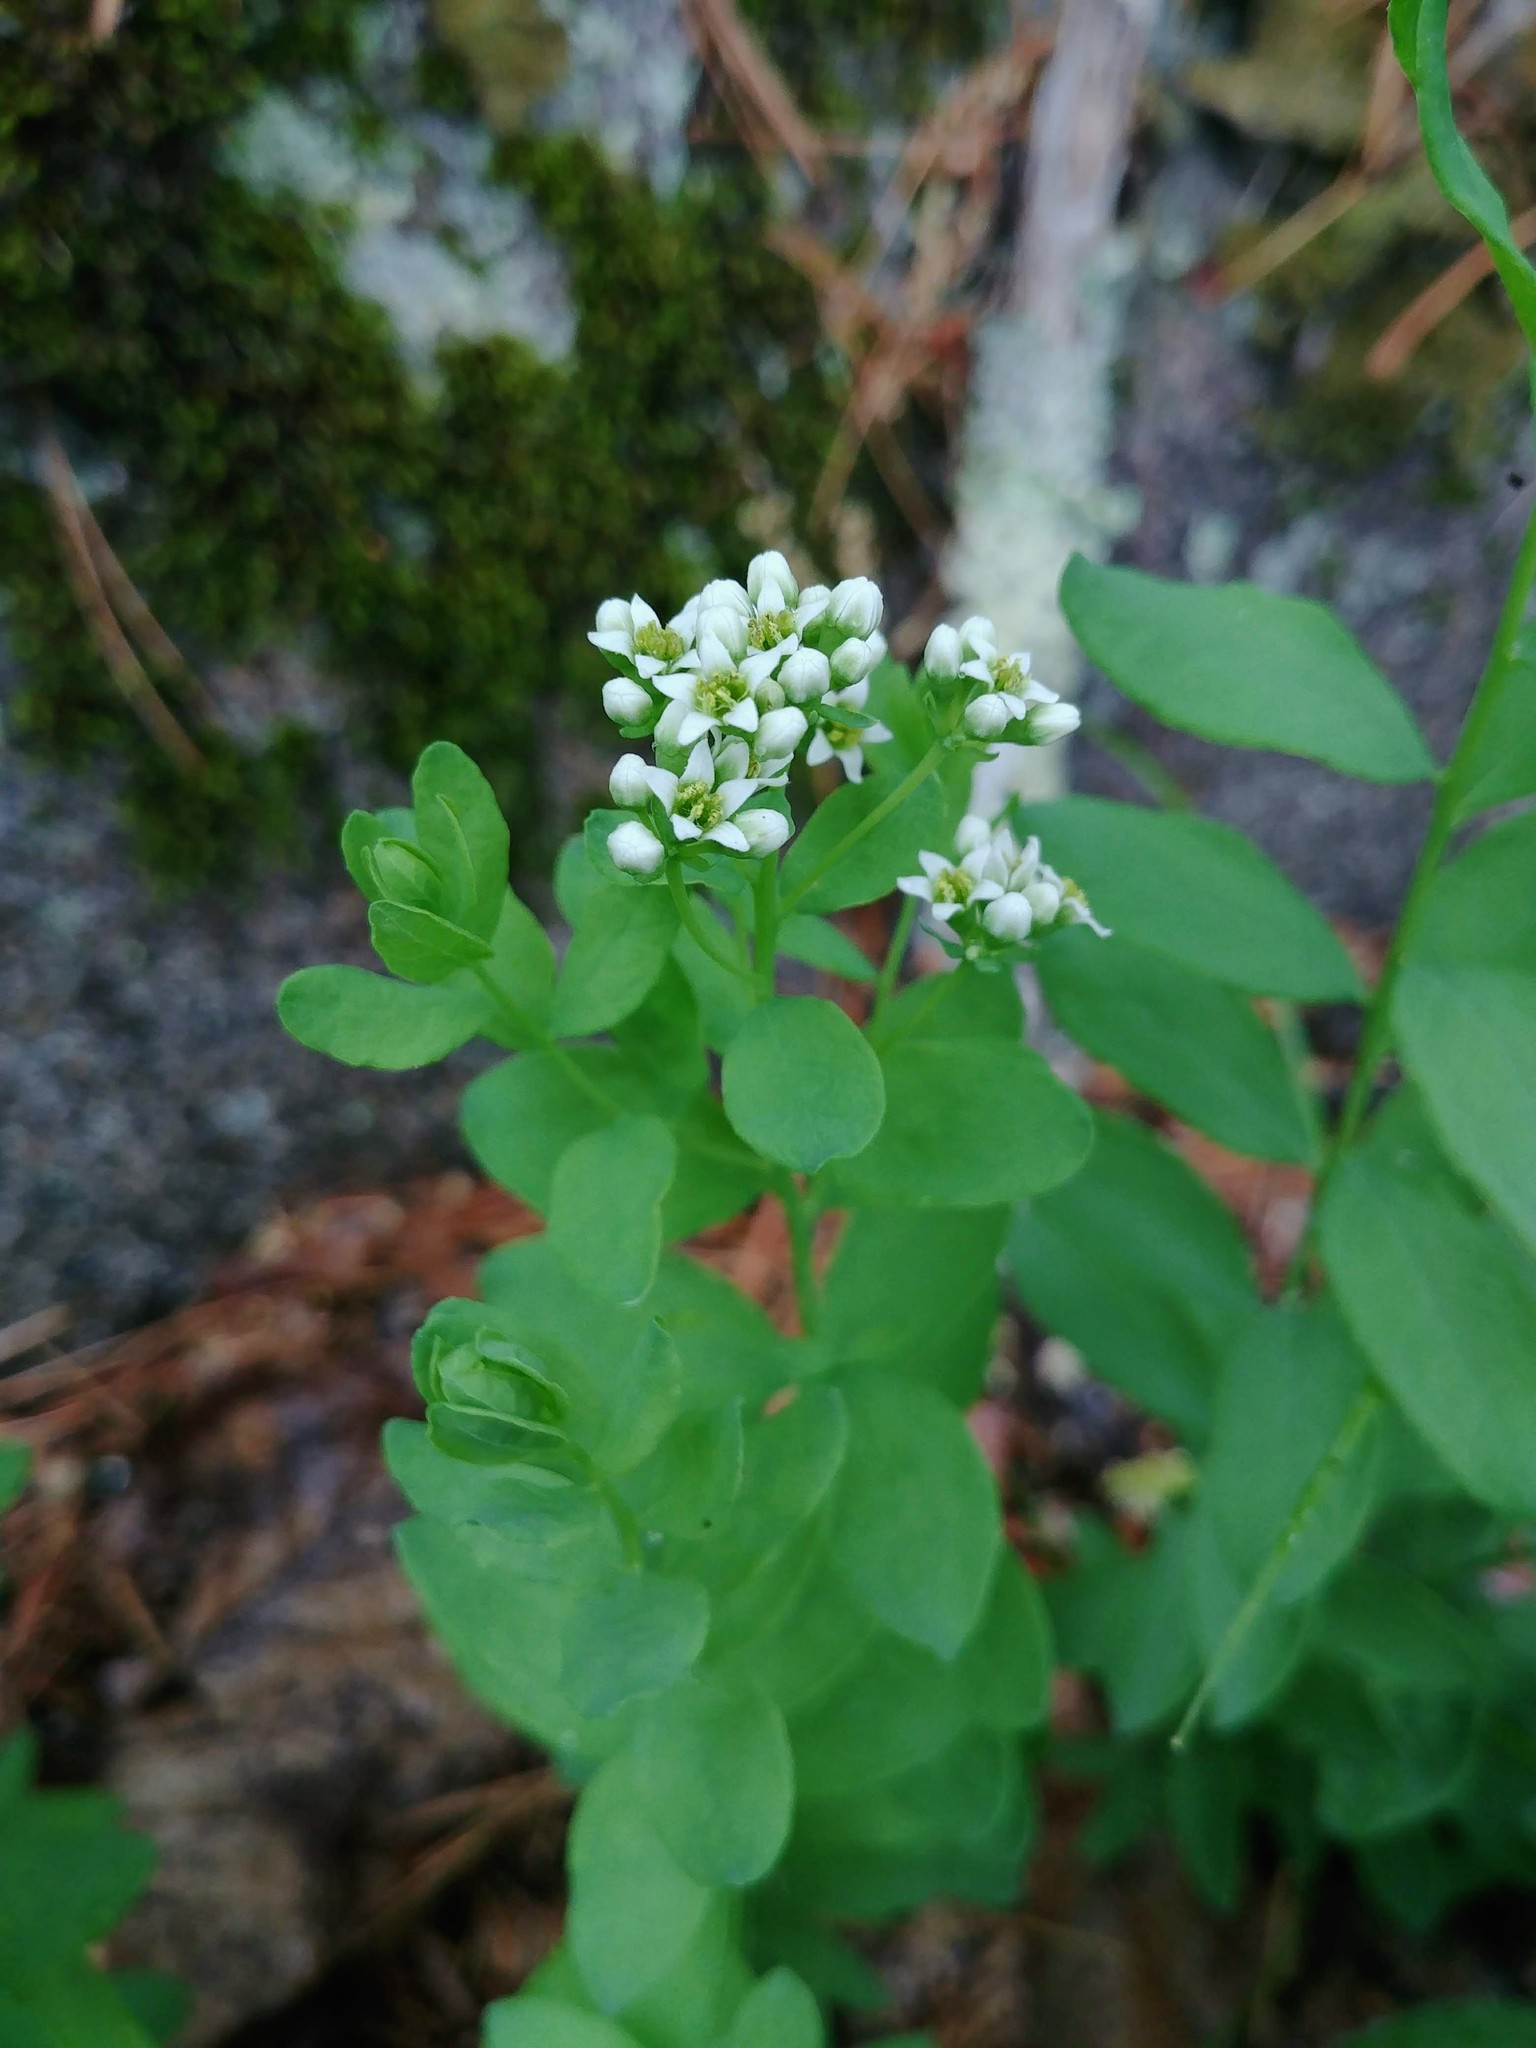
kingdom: Plantae
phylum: Tracheophyta
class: Magnoliopsida
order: Santalales
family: Comandraceae
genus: Comandra
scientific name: Comandra umbellata
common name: Bastard toadflax
